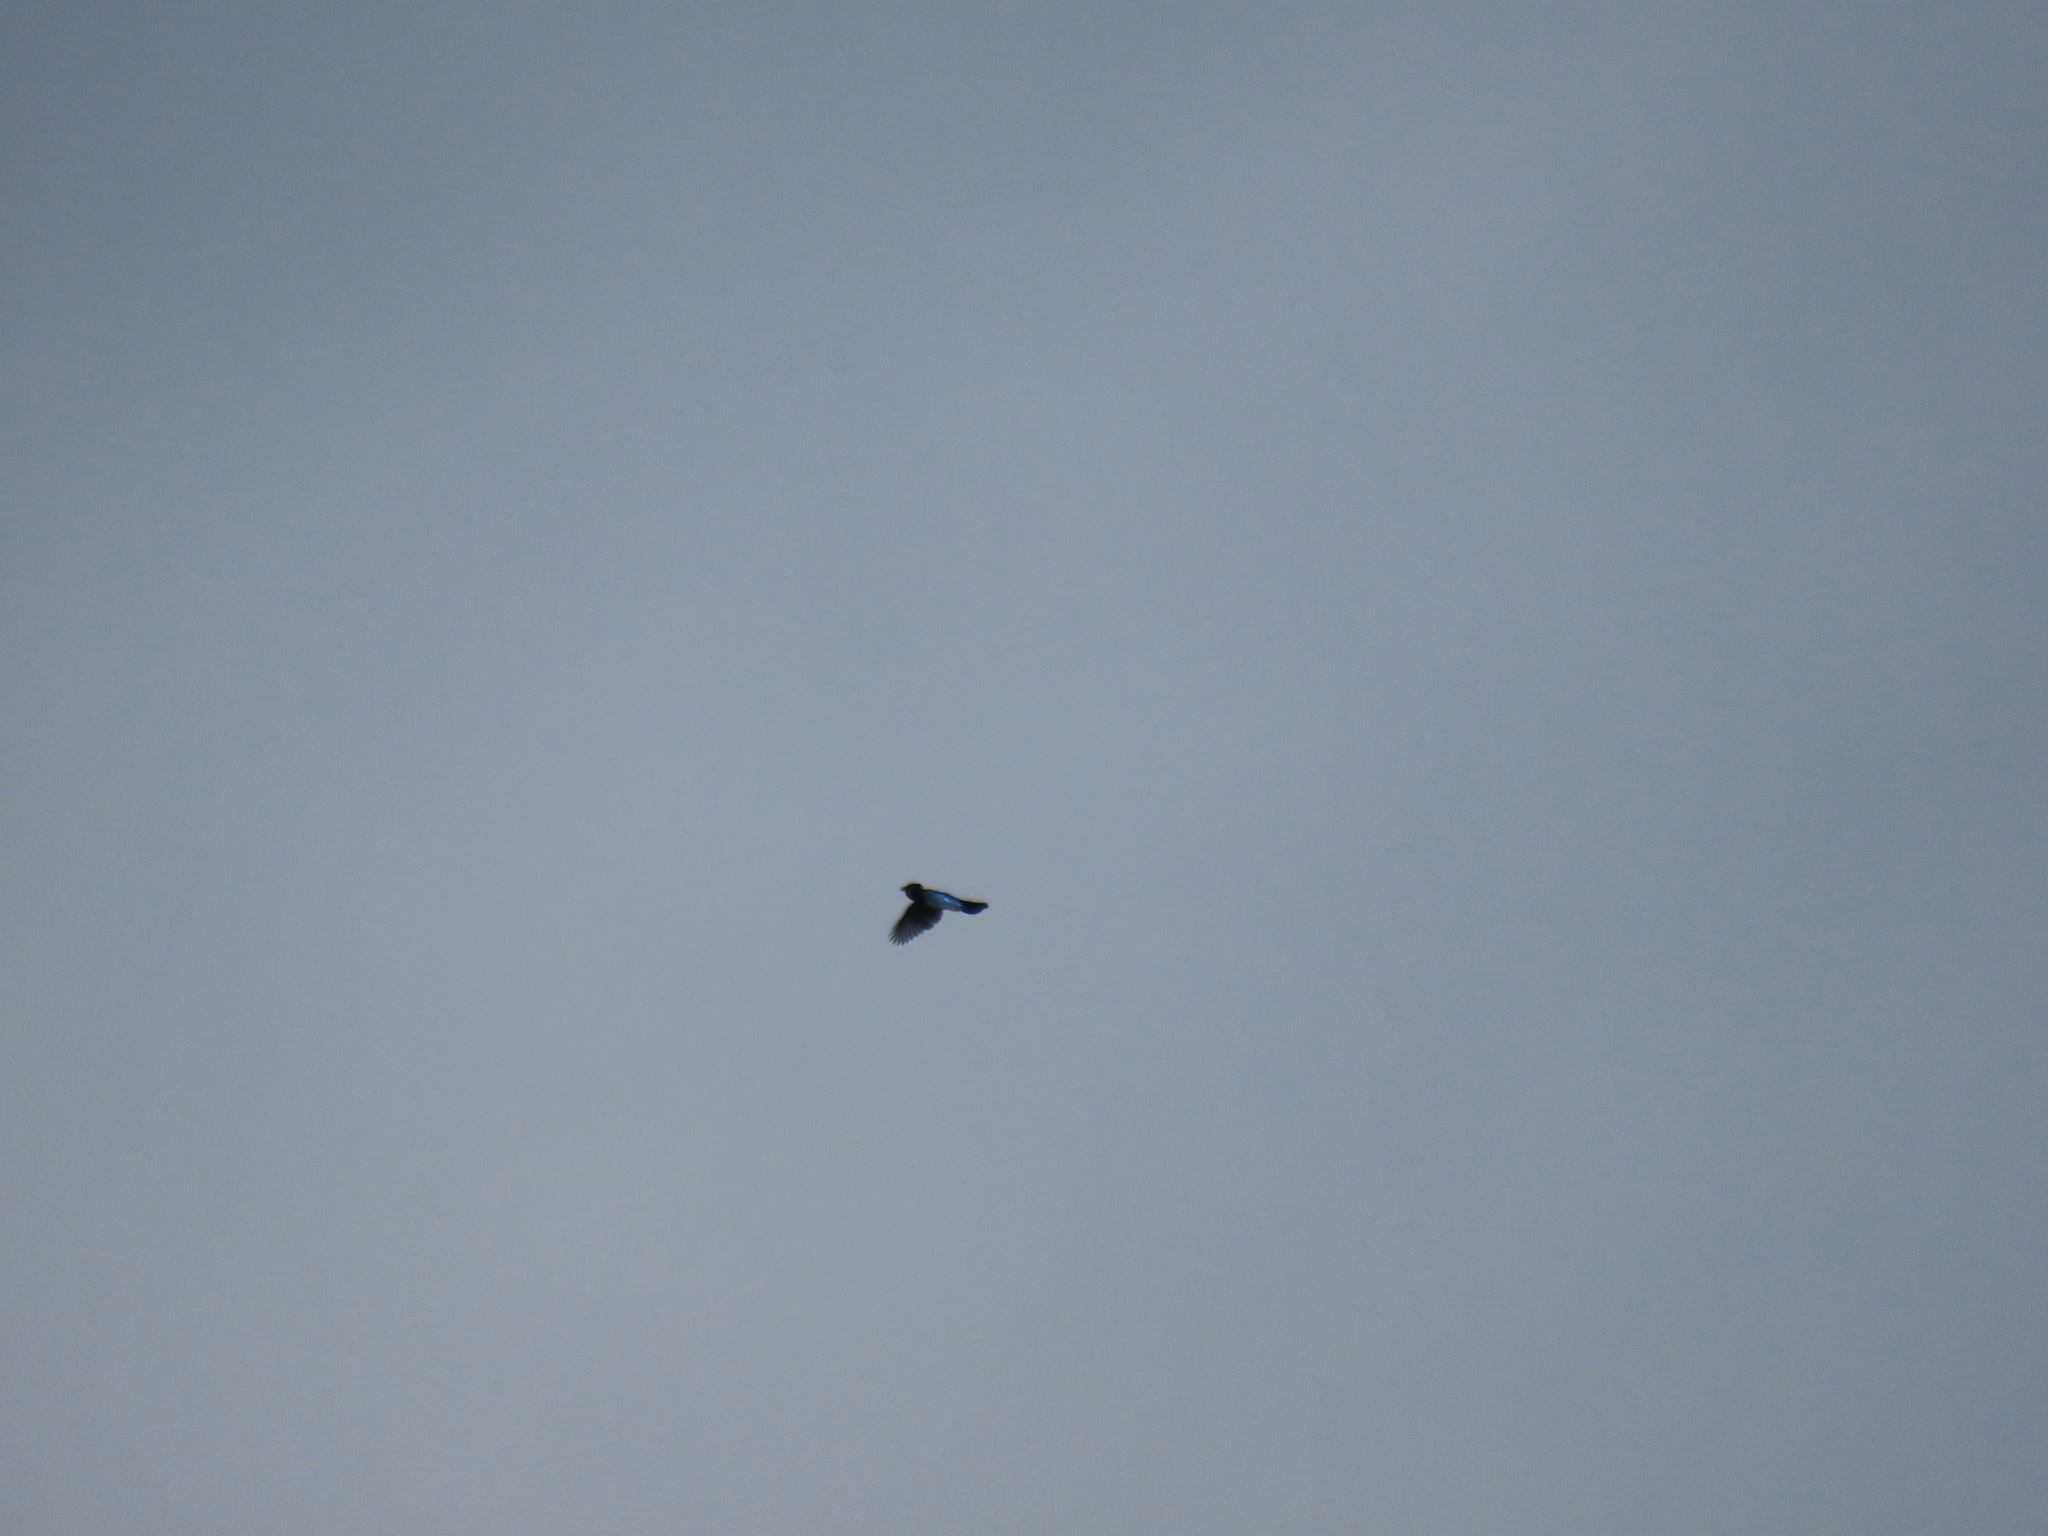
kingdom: Animalia
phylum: Chordata
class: Aves
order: Passeriformes
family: Corvidae
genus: Cyanocitta
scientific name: Cyanocitta stelleri
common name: Steller's jay
